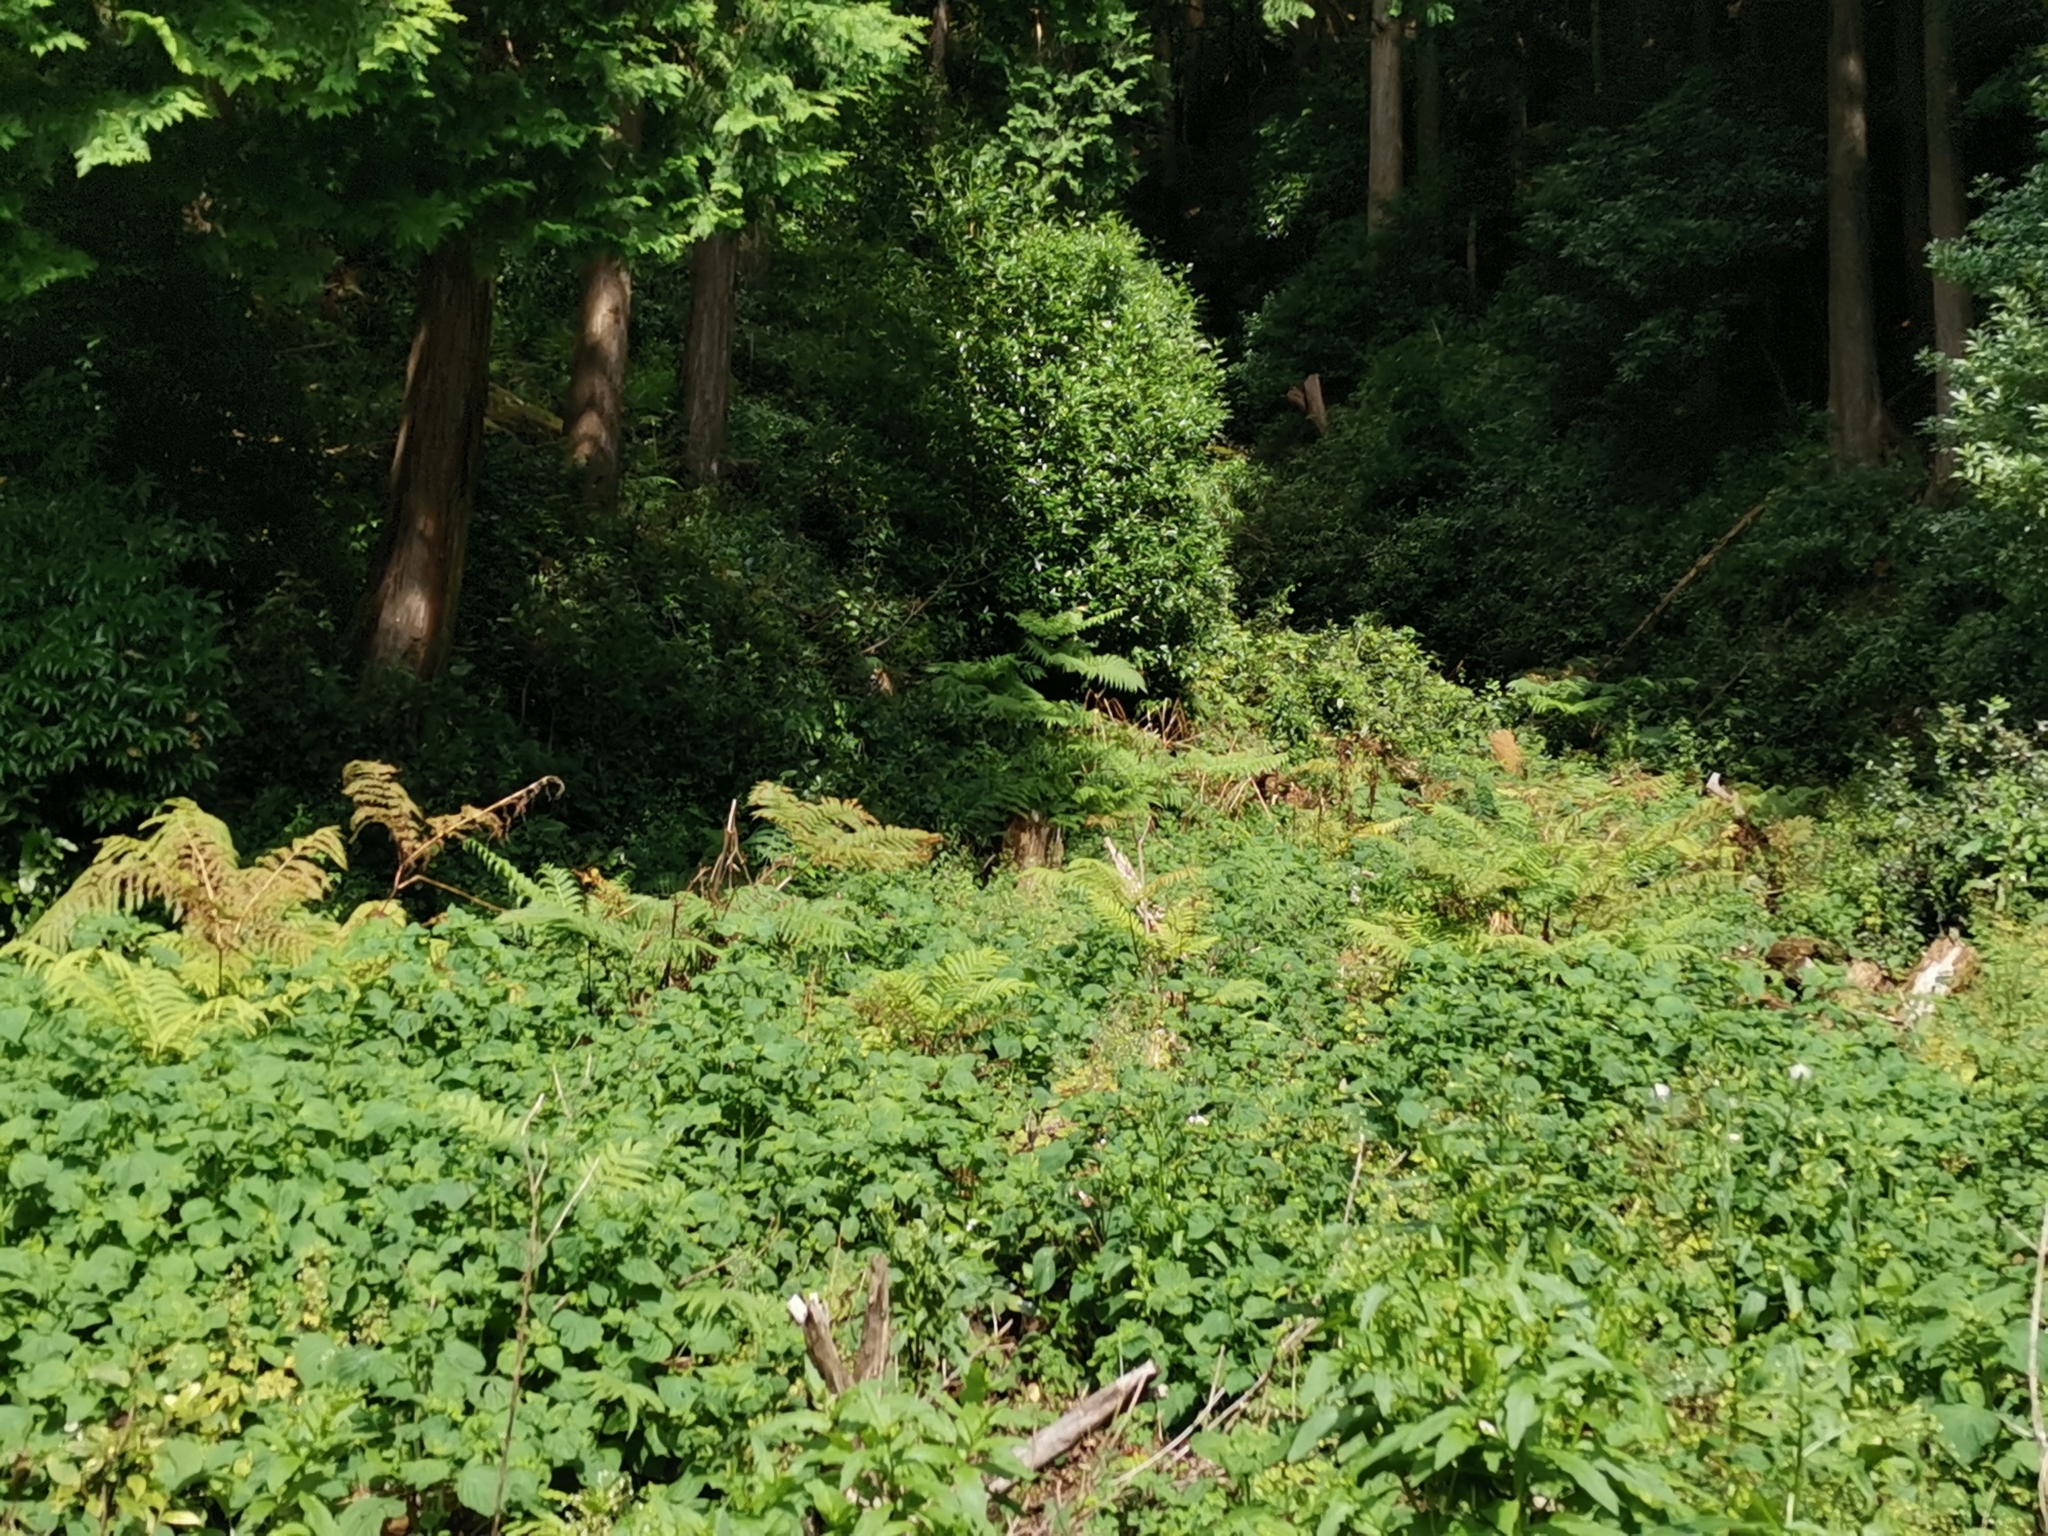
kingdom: Plantae
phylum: Tracheophyta
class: Polypodiopsida
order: Polypodiales
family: Pteridaceae
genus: Pteris
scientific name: Pteris wallichiana
